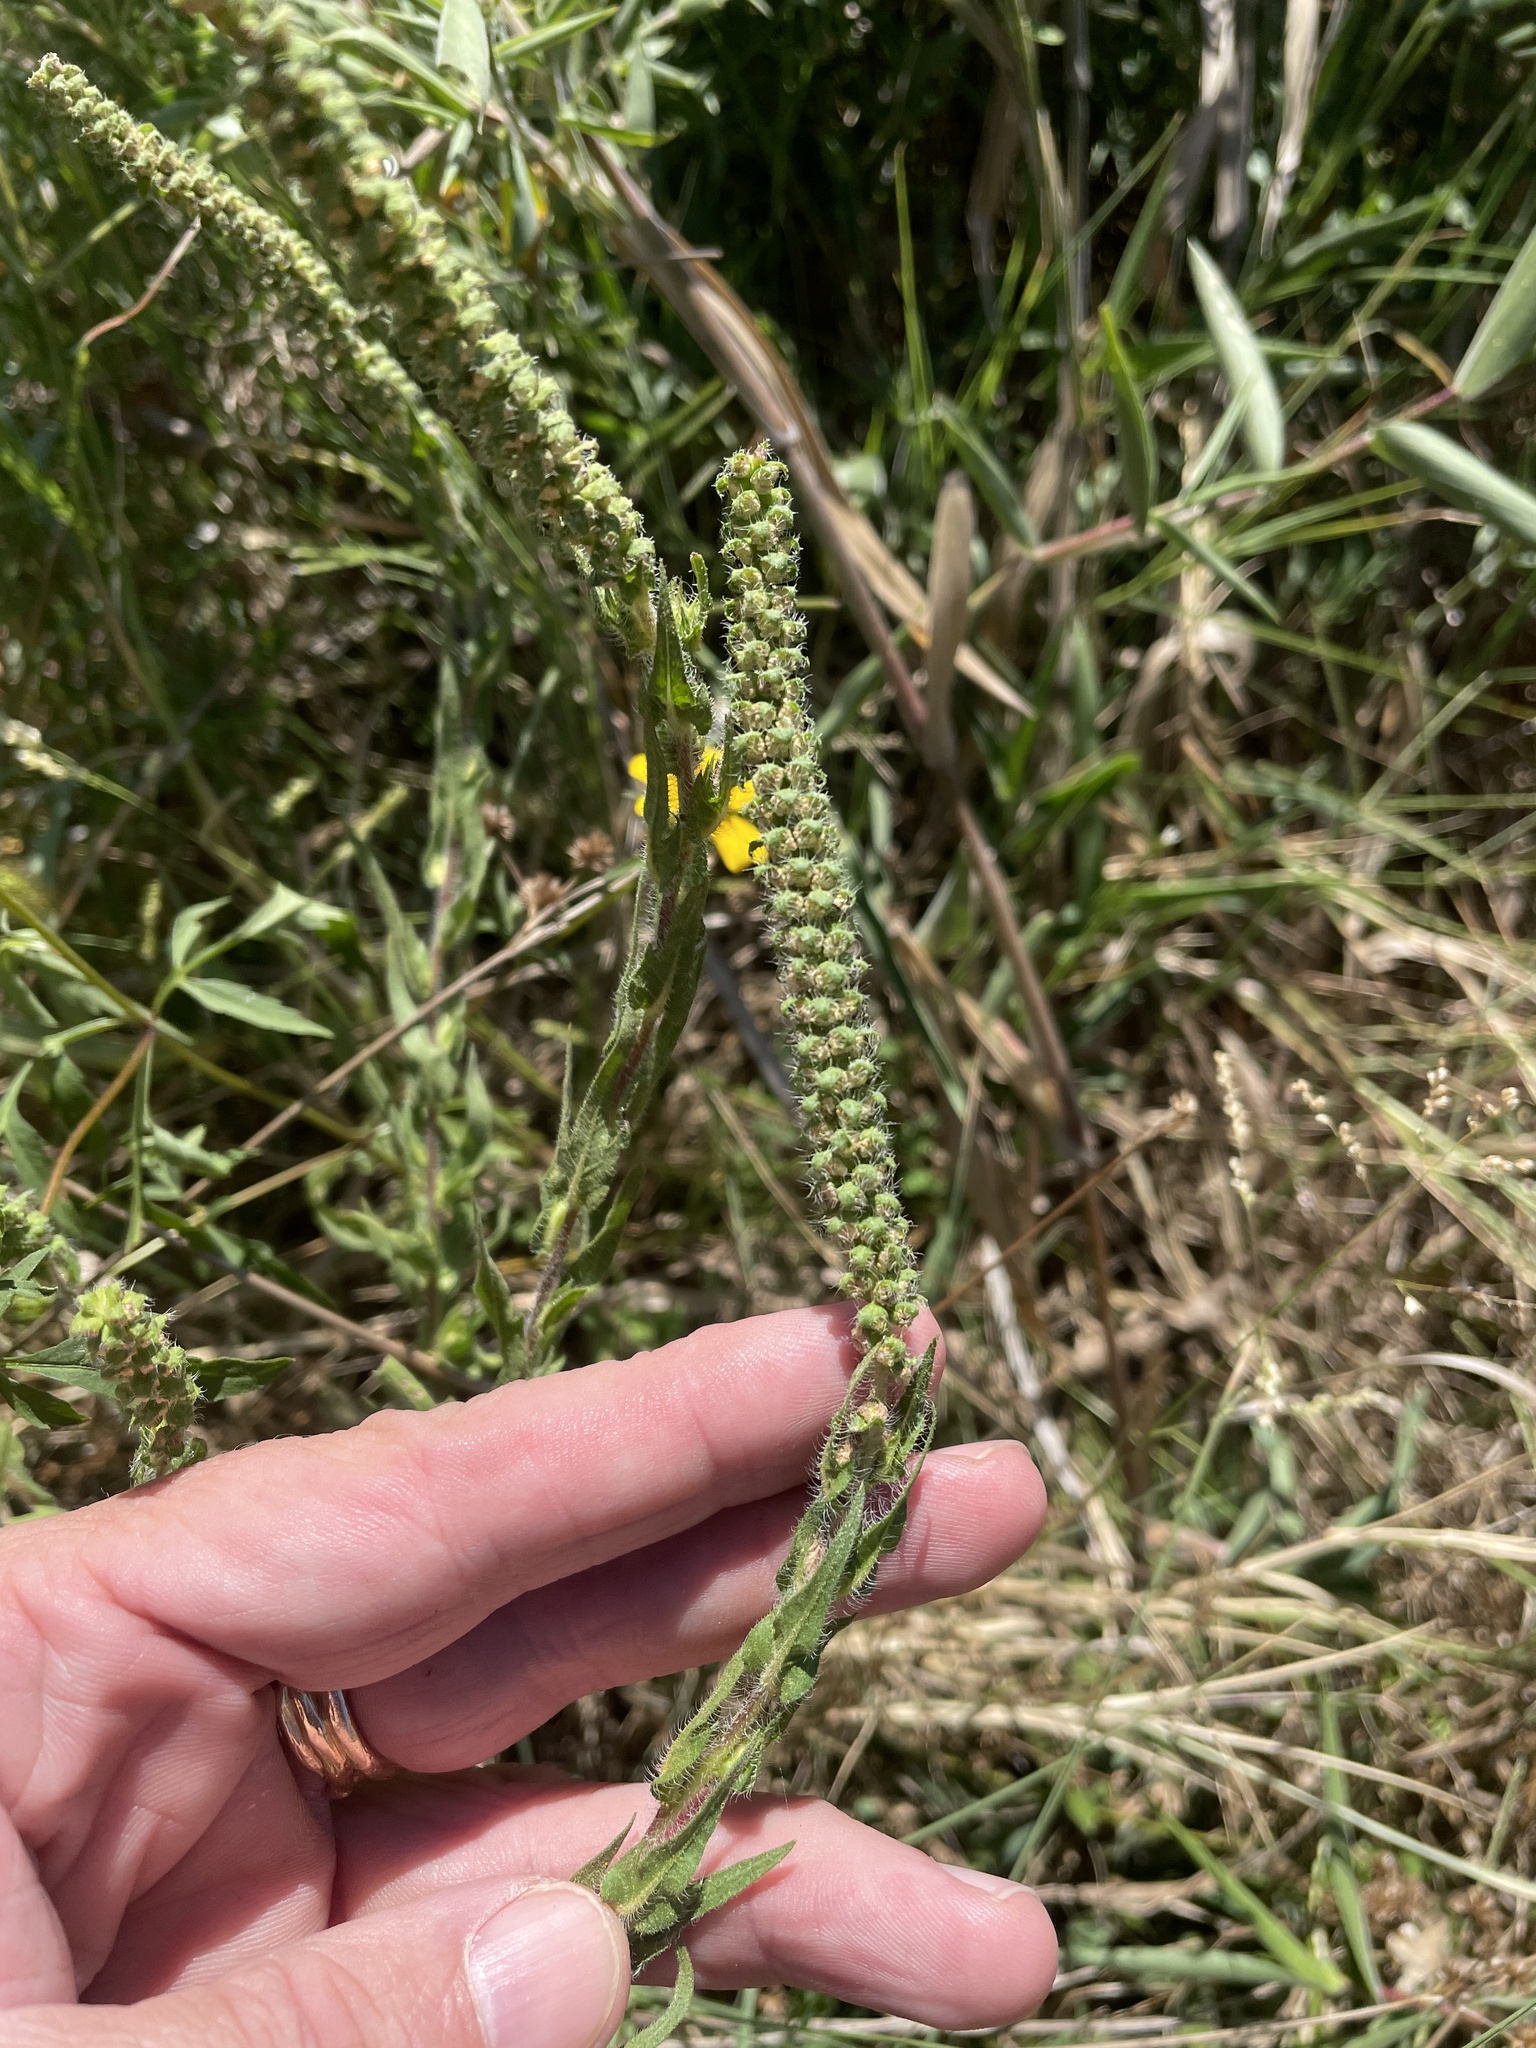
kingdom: Plantae
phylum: Tracheophyta
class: Magnoliopsida
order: Asterales
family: Asteraceae
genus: Ambrosia
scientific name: Ambrosia bidentata
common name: Southern ragweed
